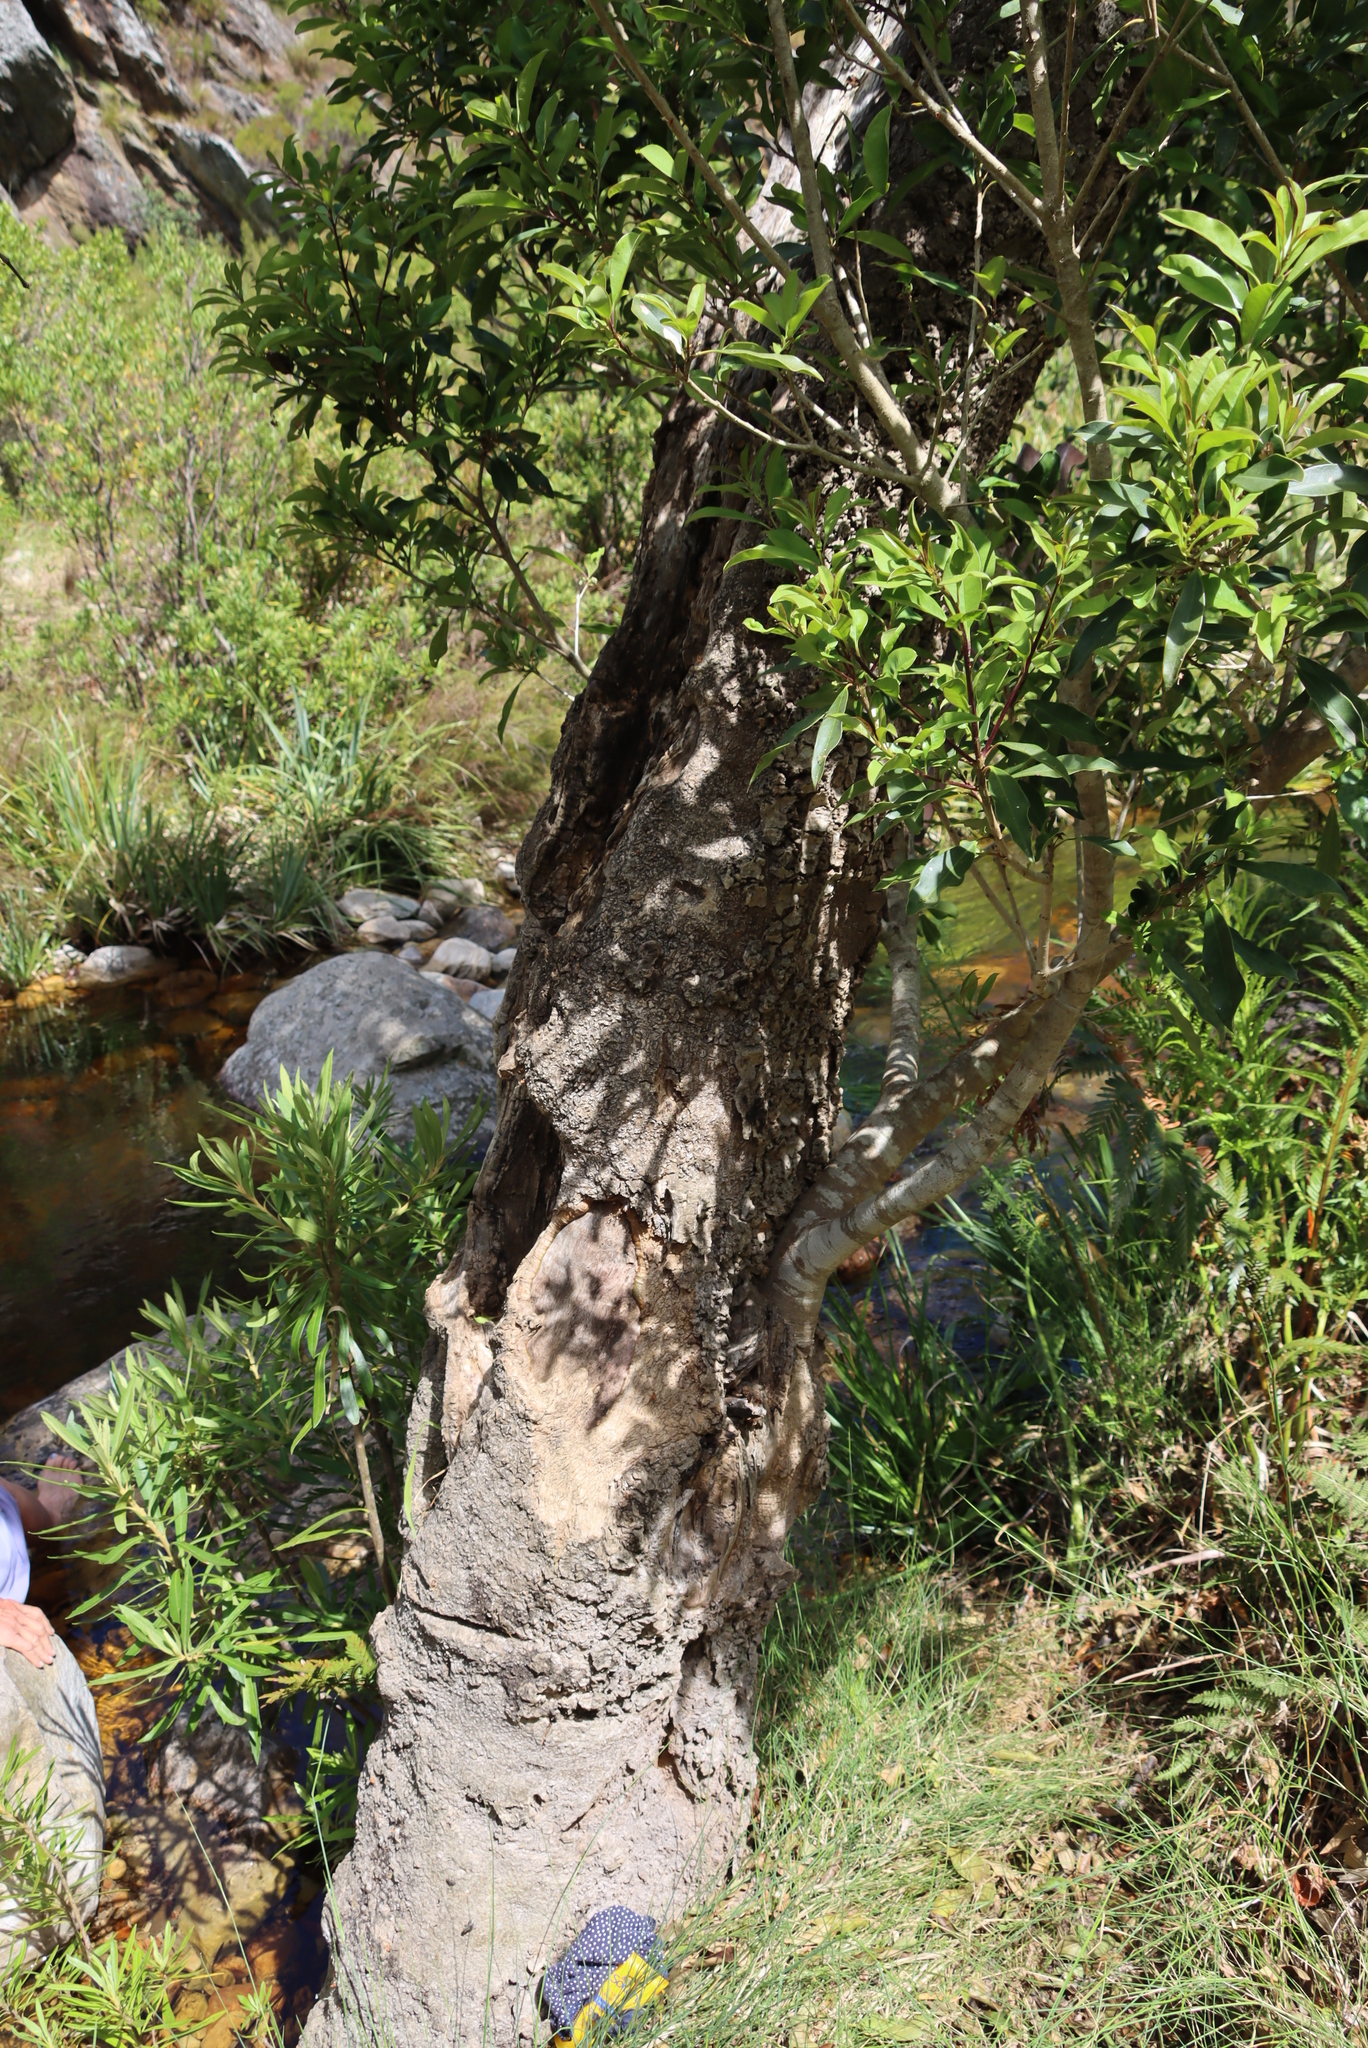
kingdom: Plantae
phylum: Tracheophyta
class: Magnoliopsida
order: Gentianales
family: Rubiaceae
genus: Canthium
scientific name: Canthium inerme
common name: Unarmed turkey-berry
